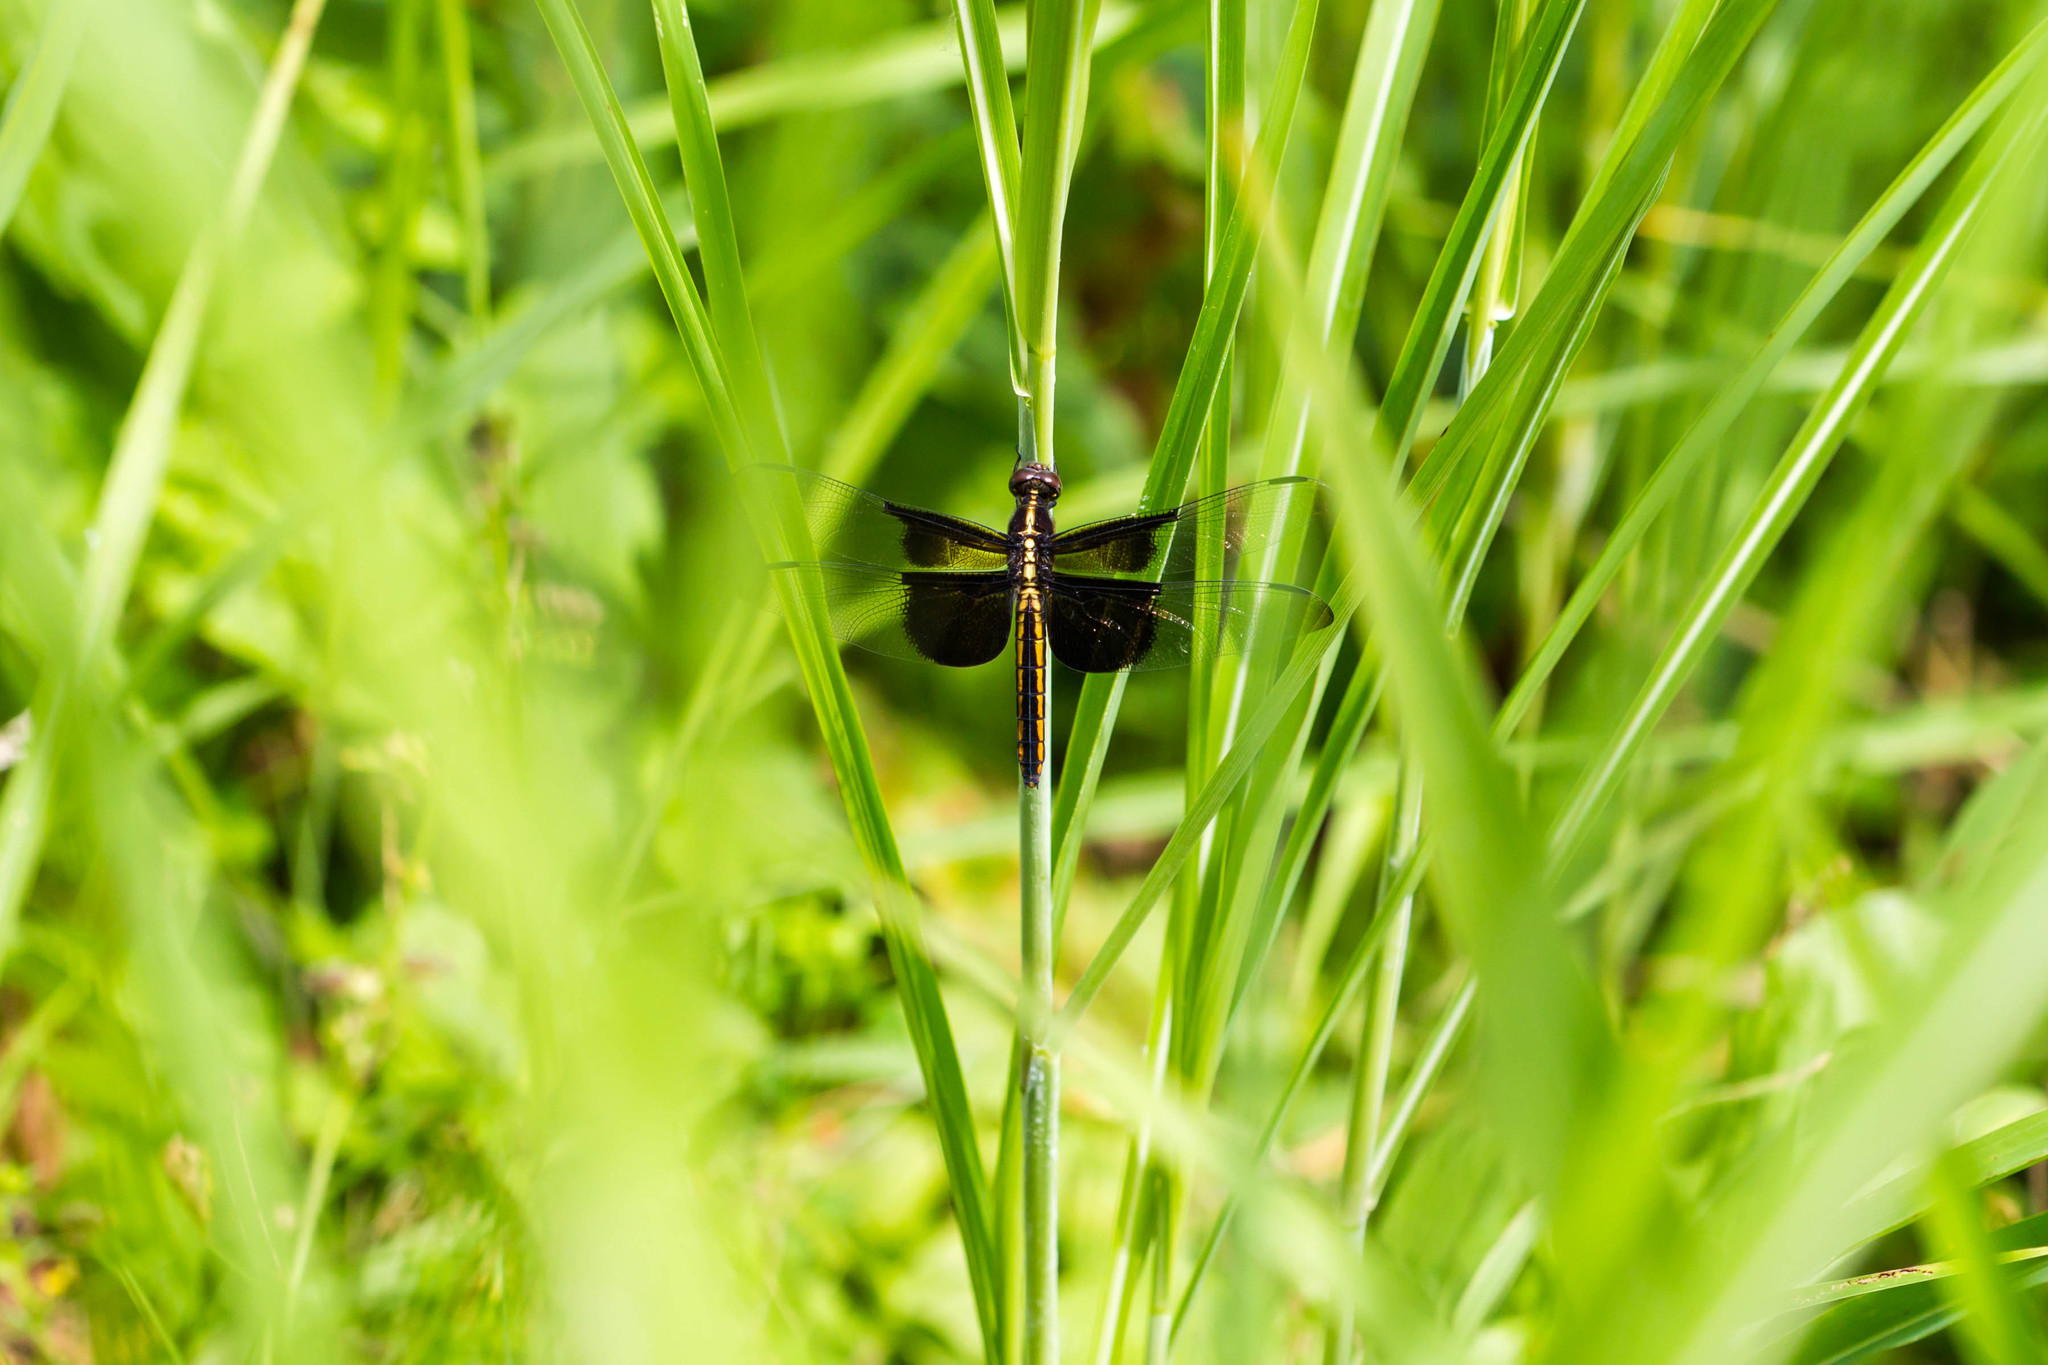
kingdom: Animalia
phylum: Arthropoda
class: Insecta
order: Odonata
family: Libellulidae
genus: Libellula
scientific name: Libellula luctuosa
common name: Widow skimmer
